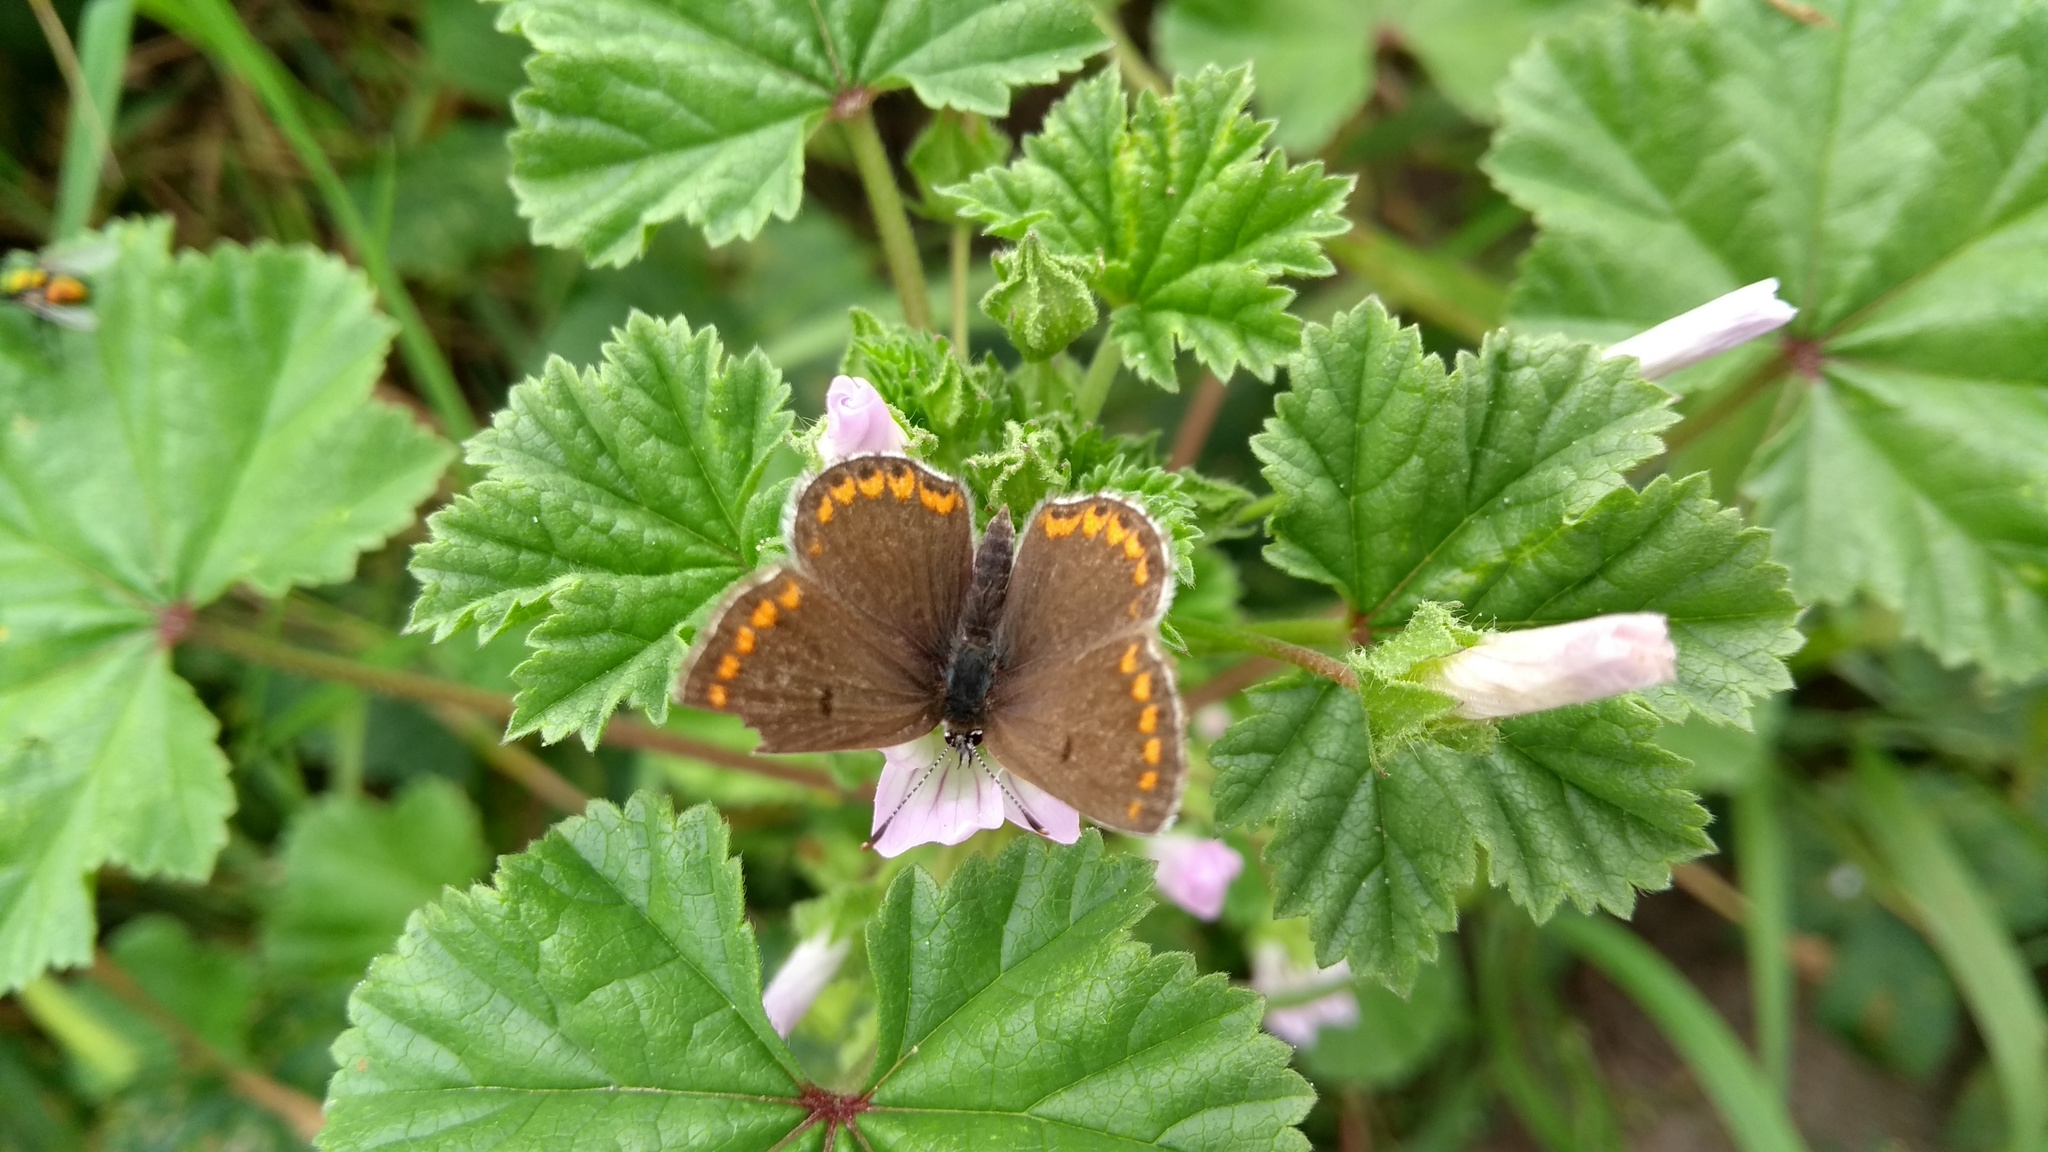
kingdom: Animalia
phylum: Arthropoda
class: Insecta
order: Lepidoptera
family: Lycaenidae
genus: Aricia
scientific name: Aricia agestis
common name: Brown argus
